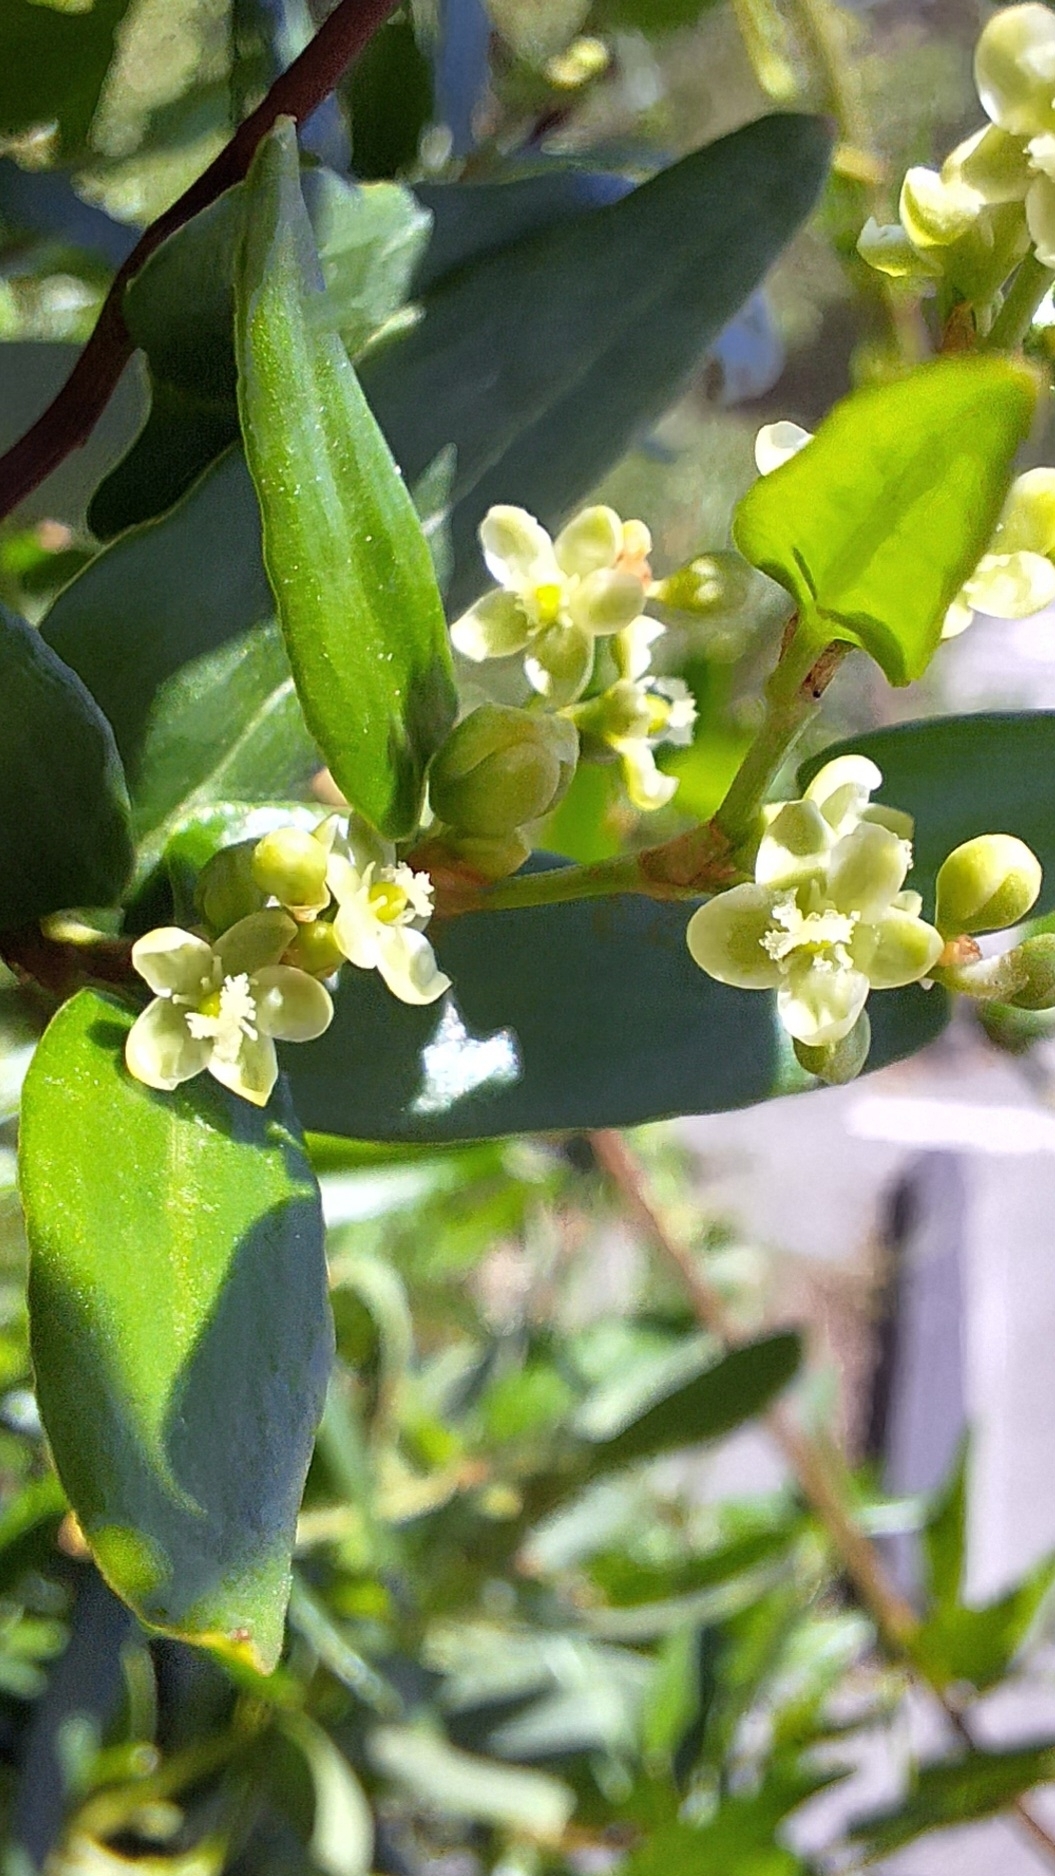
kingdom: Plantae
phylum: Tracheophyta
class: Magnoliopsida
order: Caryophyllales
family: Polygonaceae
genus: Muehlenbeckia
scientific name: Muehlenbeckia gunnii
